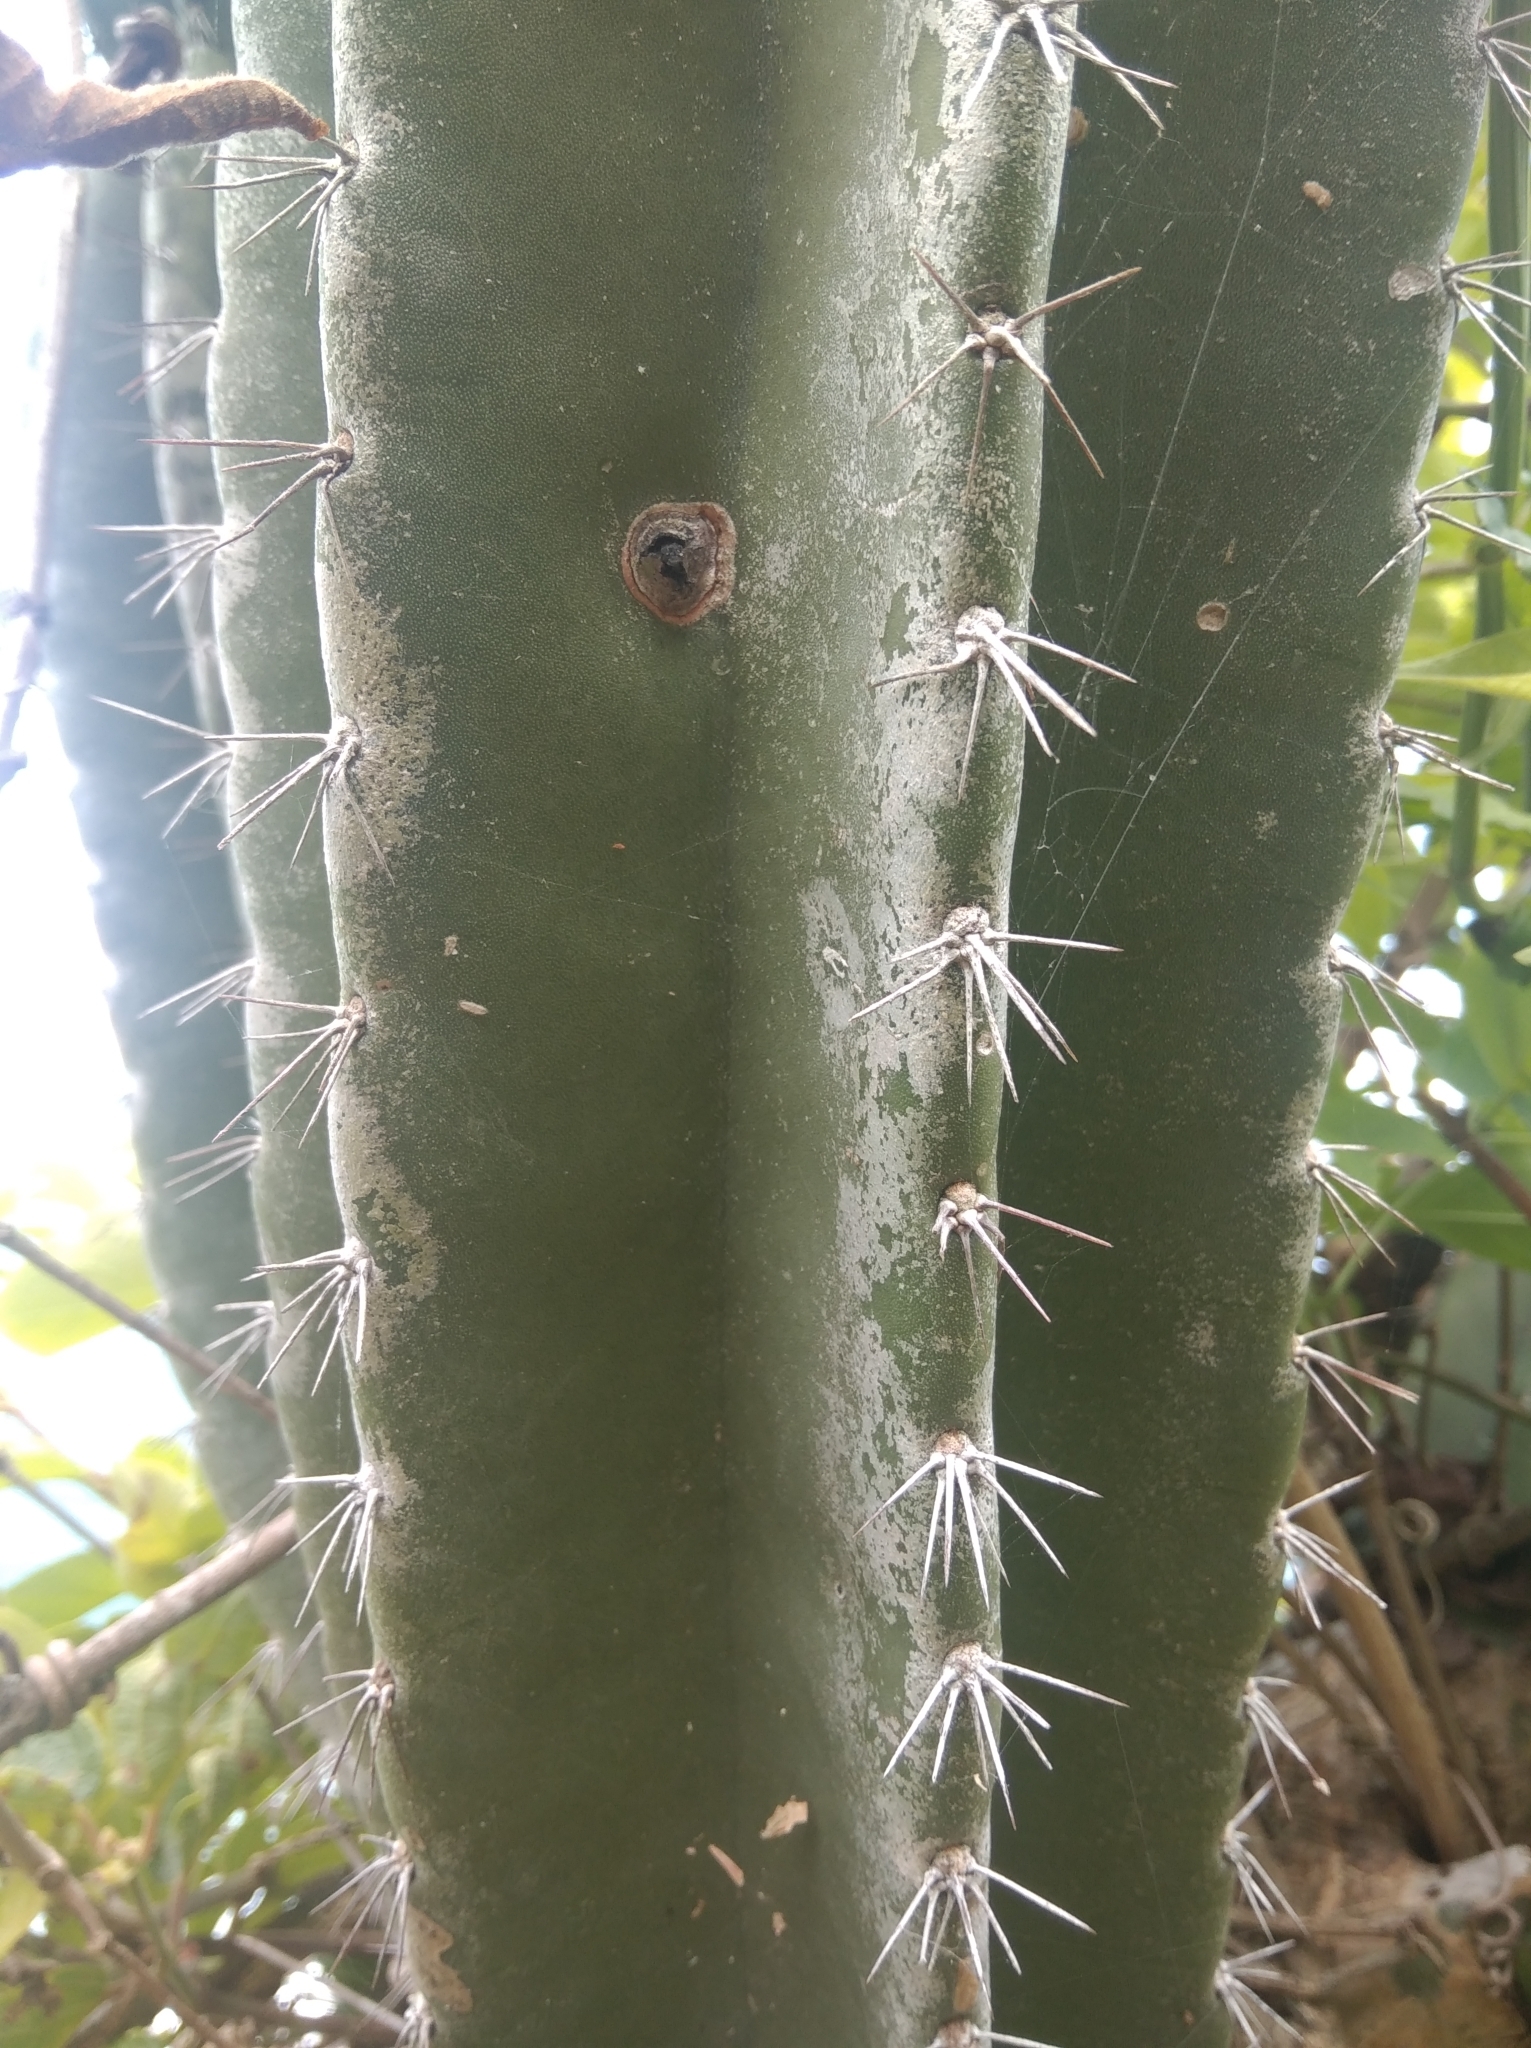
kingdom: Plantae
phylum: Tracheophyta
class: Magnoliopsida
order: Caryophyllales
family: Cactaceae
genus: Cereus
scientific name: Cereus hildmannianus
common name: Hedge cactus
